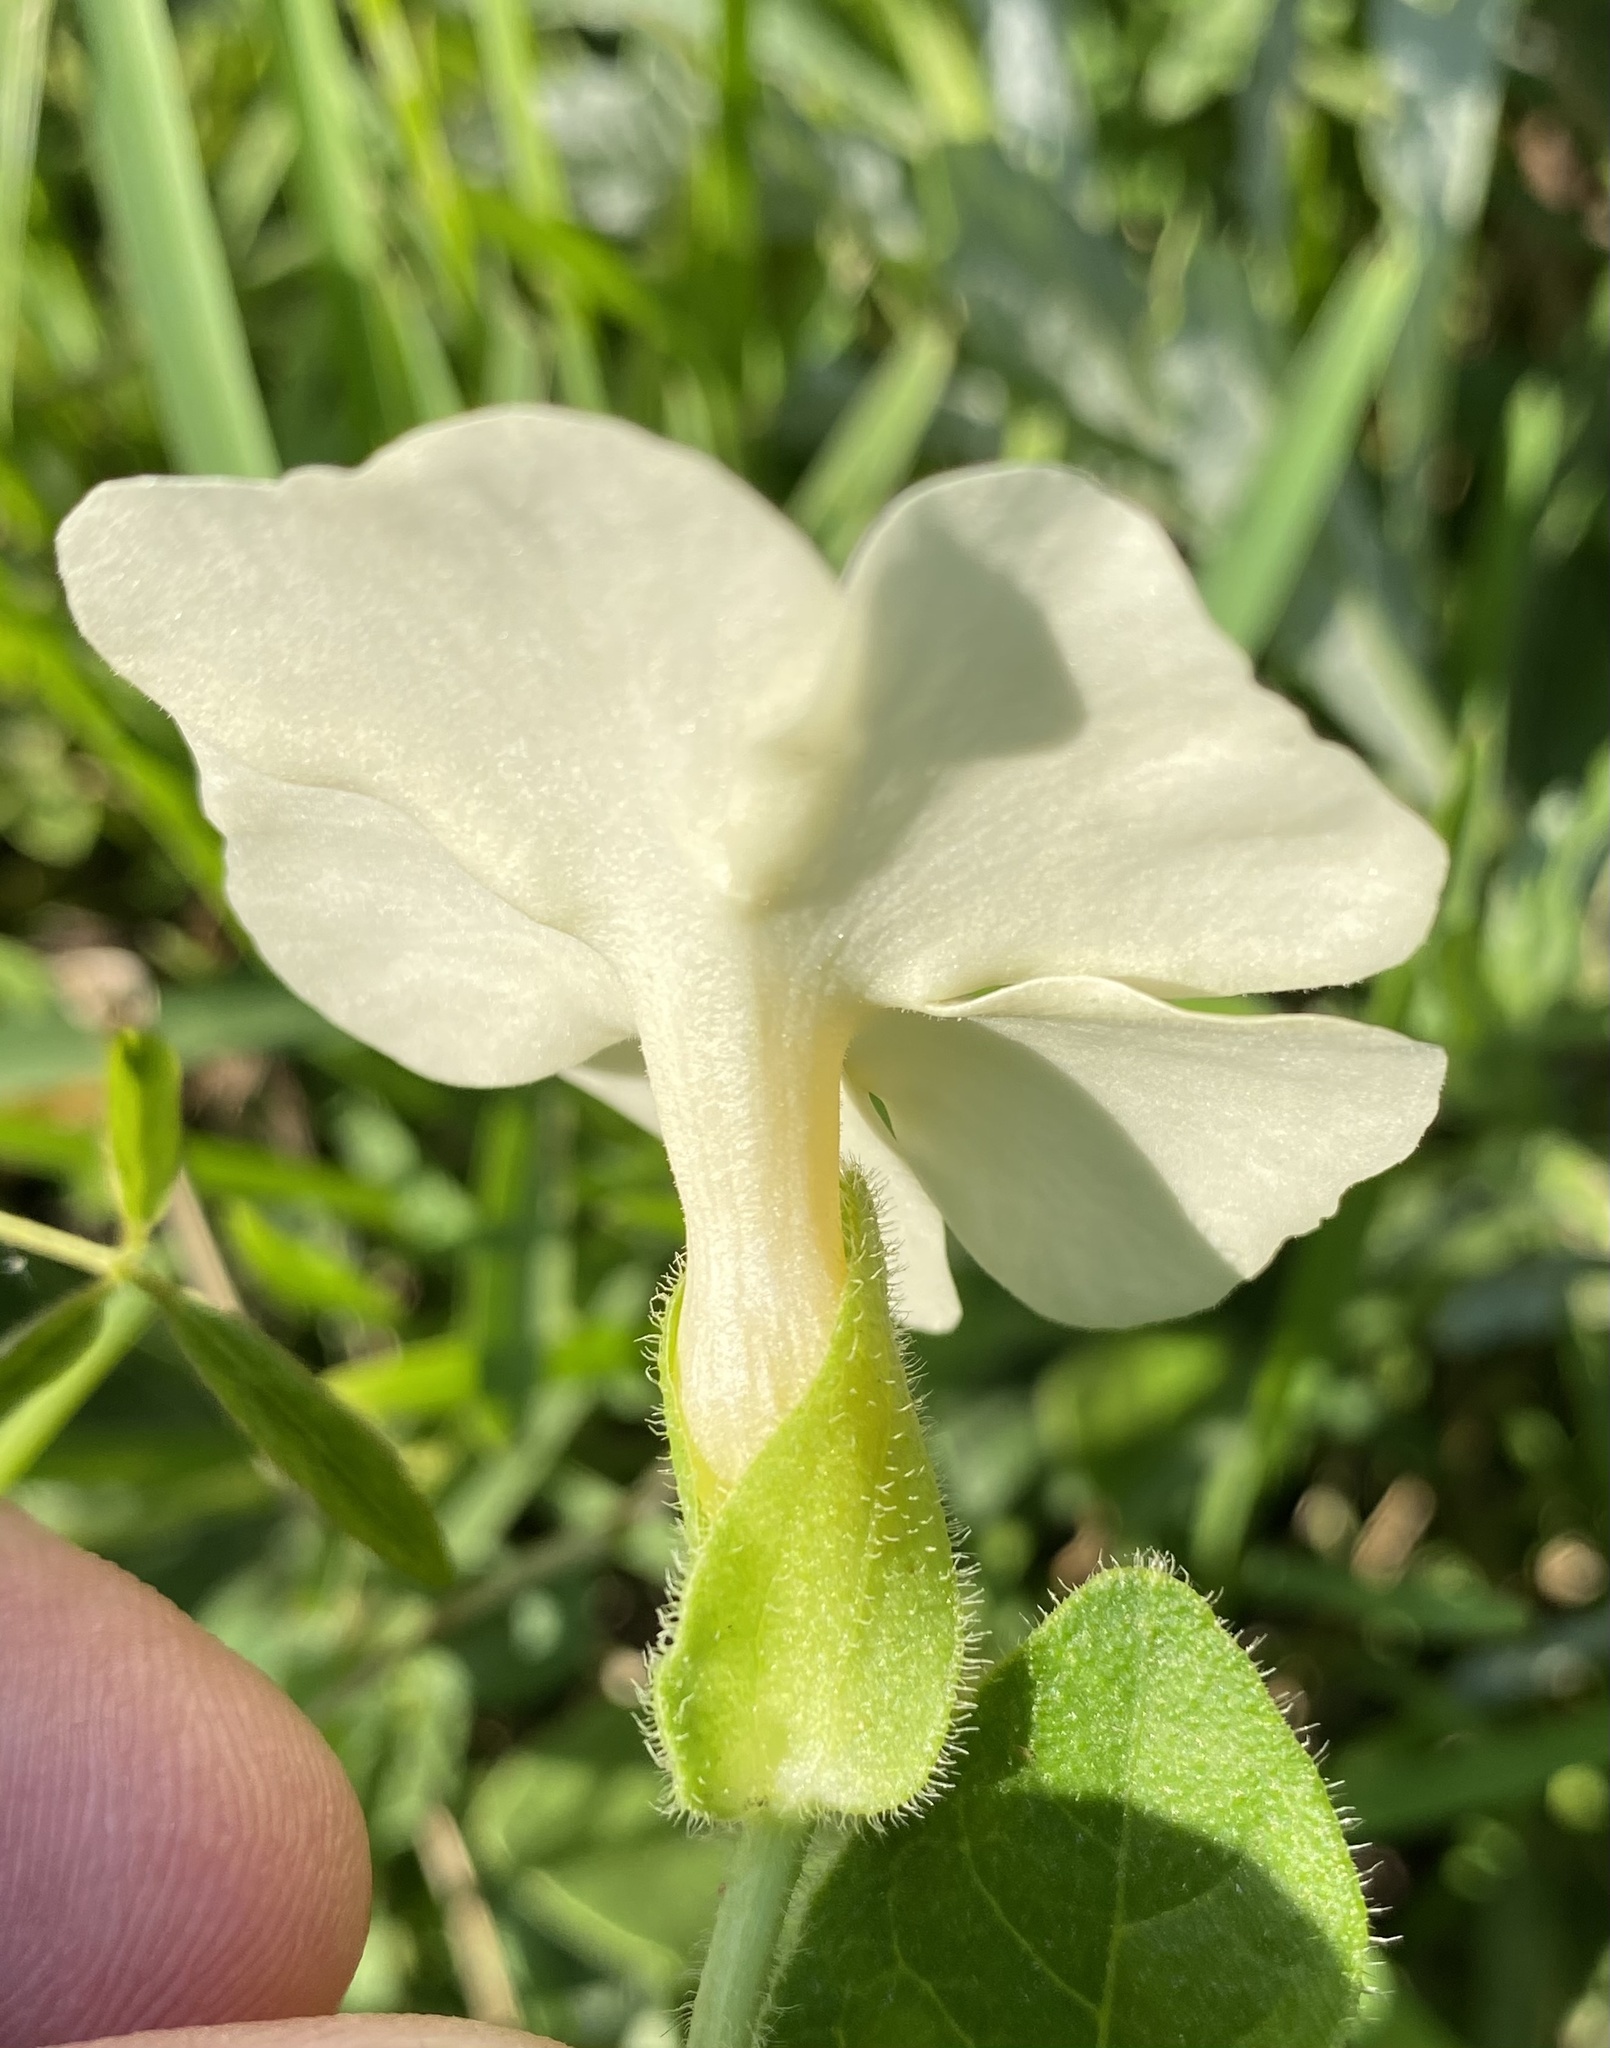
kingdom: Plantae
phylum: Tracheophyta
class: Magnoliopsida
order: Lamiales
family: Acanthaceae
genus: Thunbergia
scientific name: Thunbergia atriplicifolia
